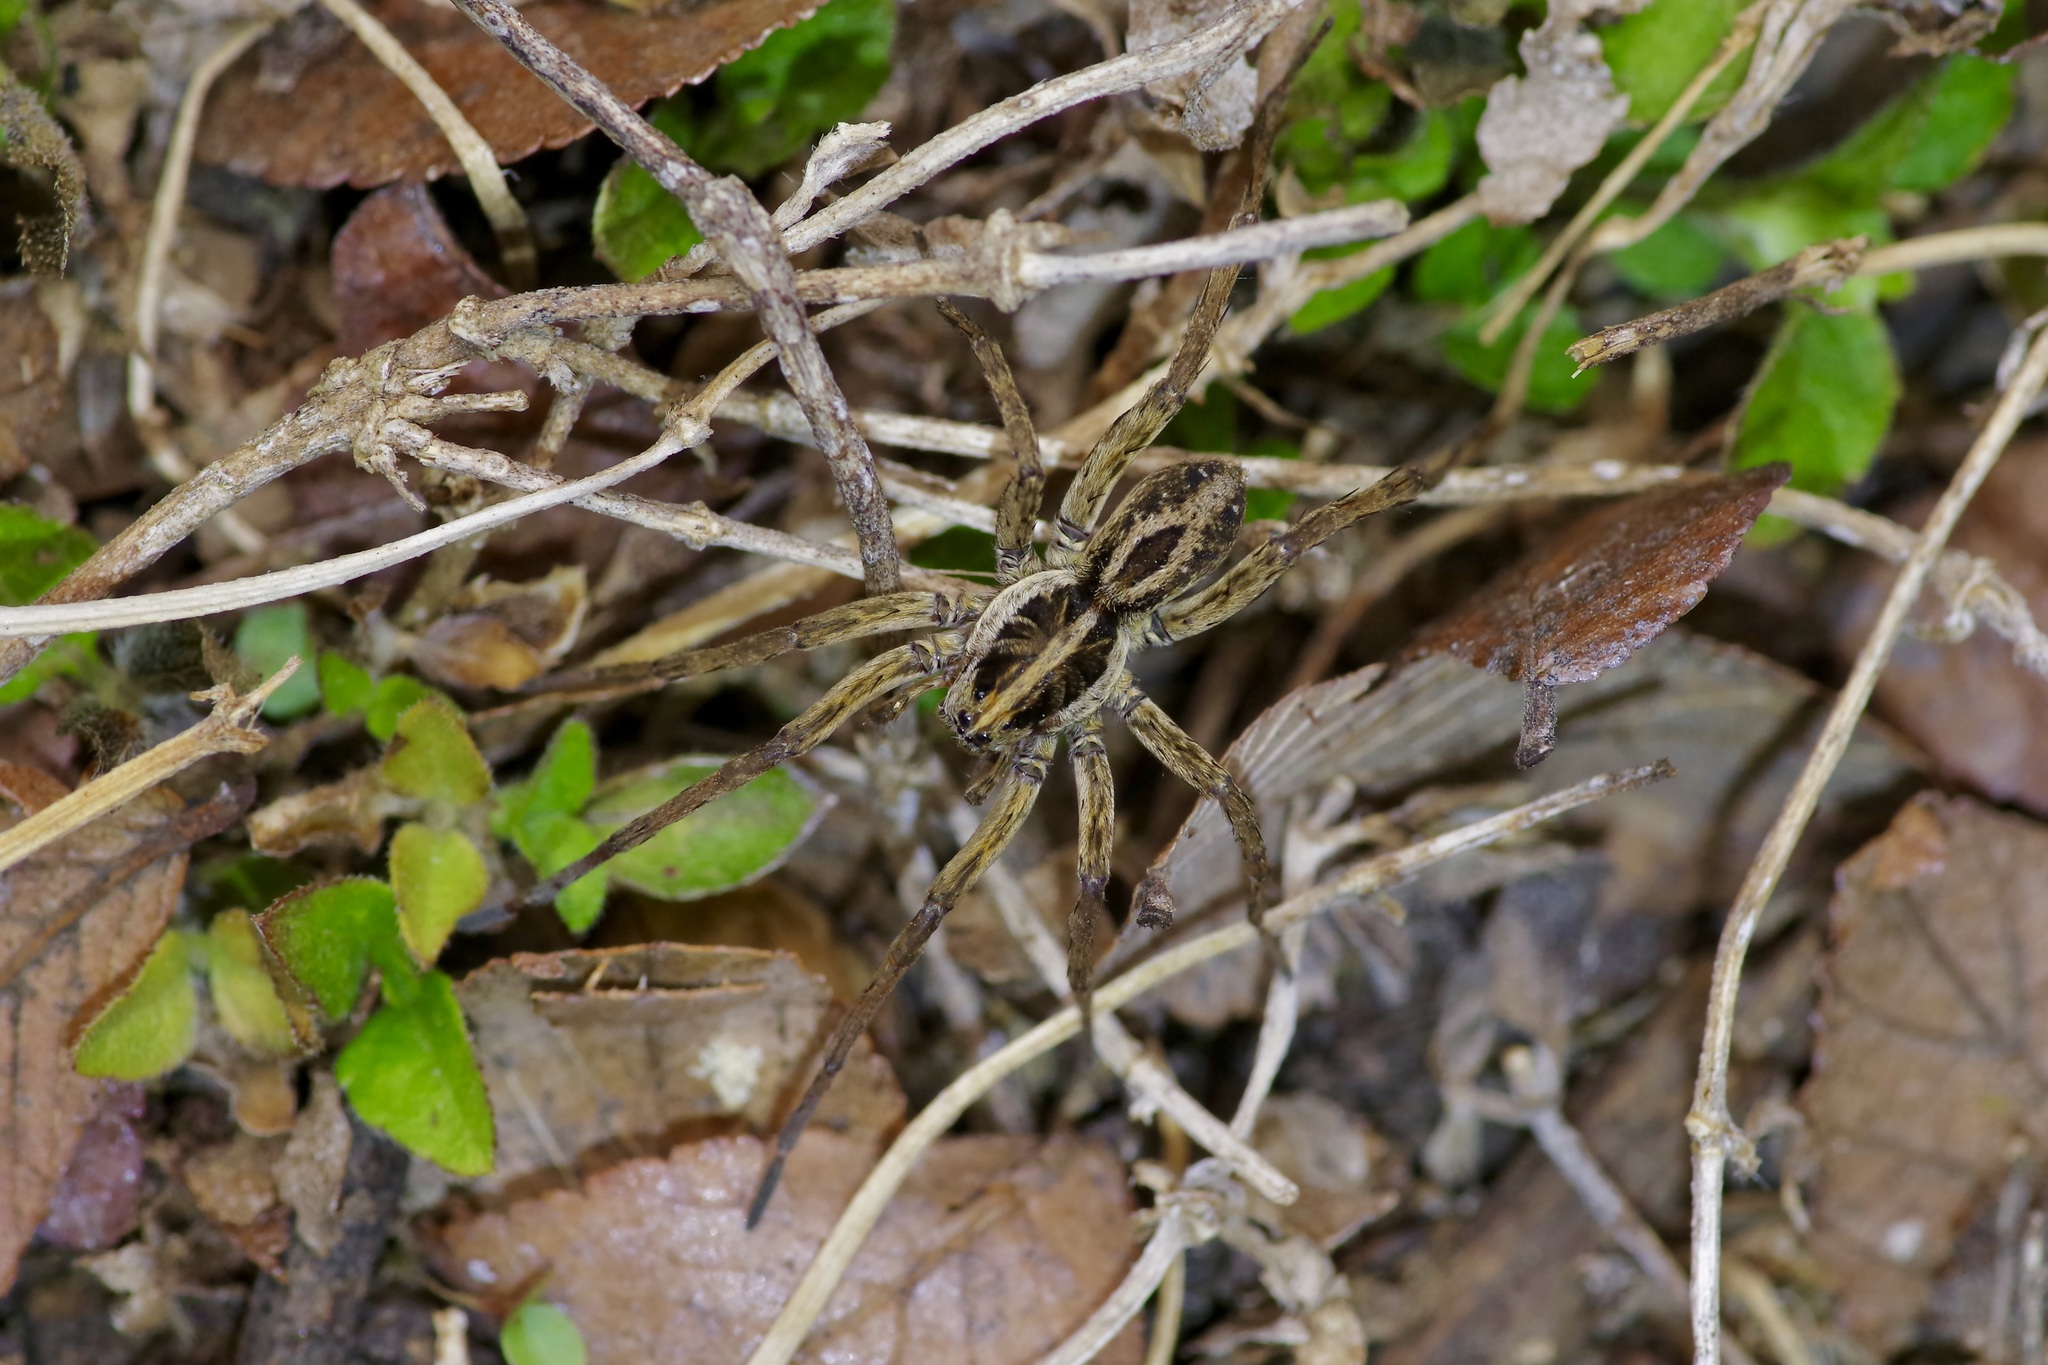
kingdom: Animalia
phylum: Arthropoda
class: Arachnida
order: Araneae
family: Lycosidae
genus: Tigrosa
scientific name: Tigrosa annexa
